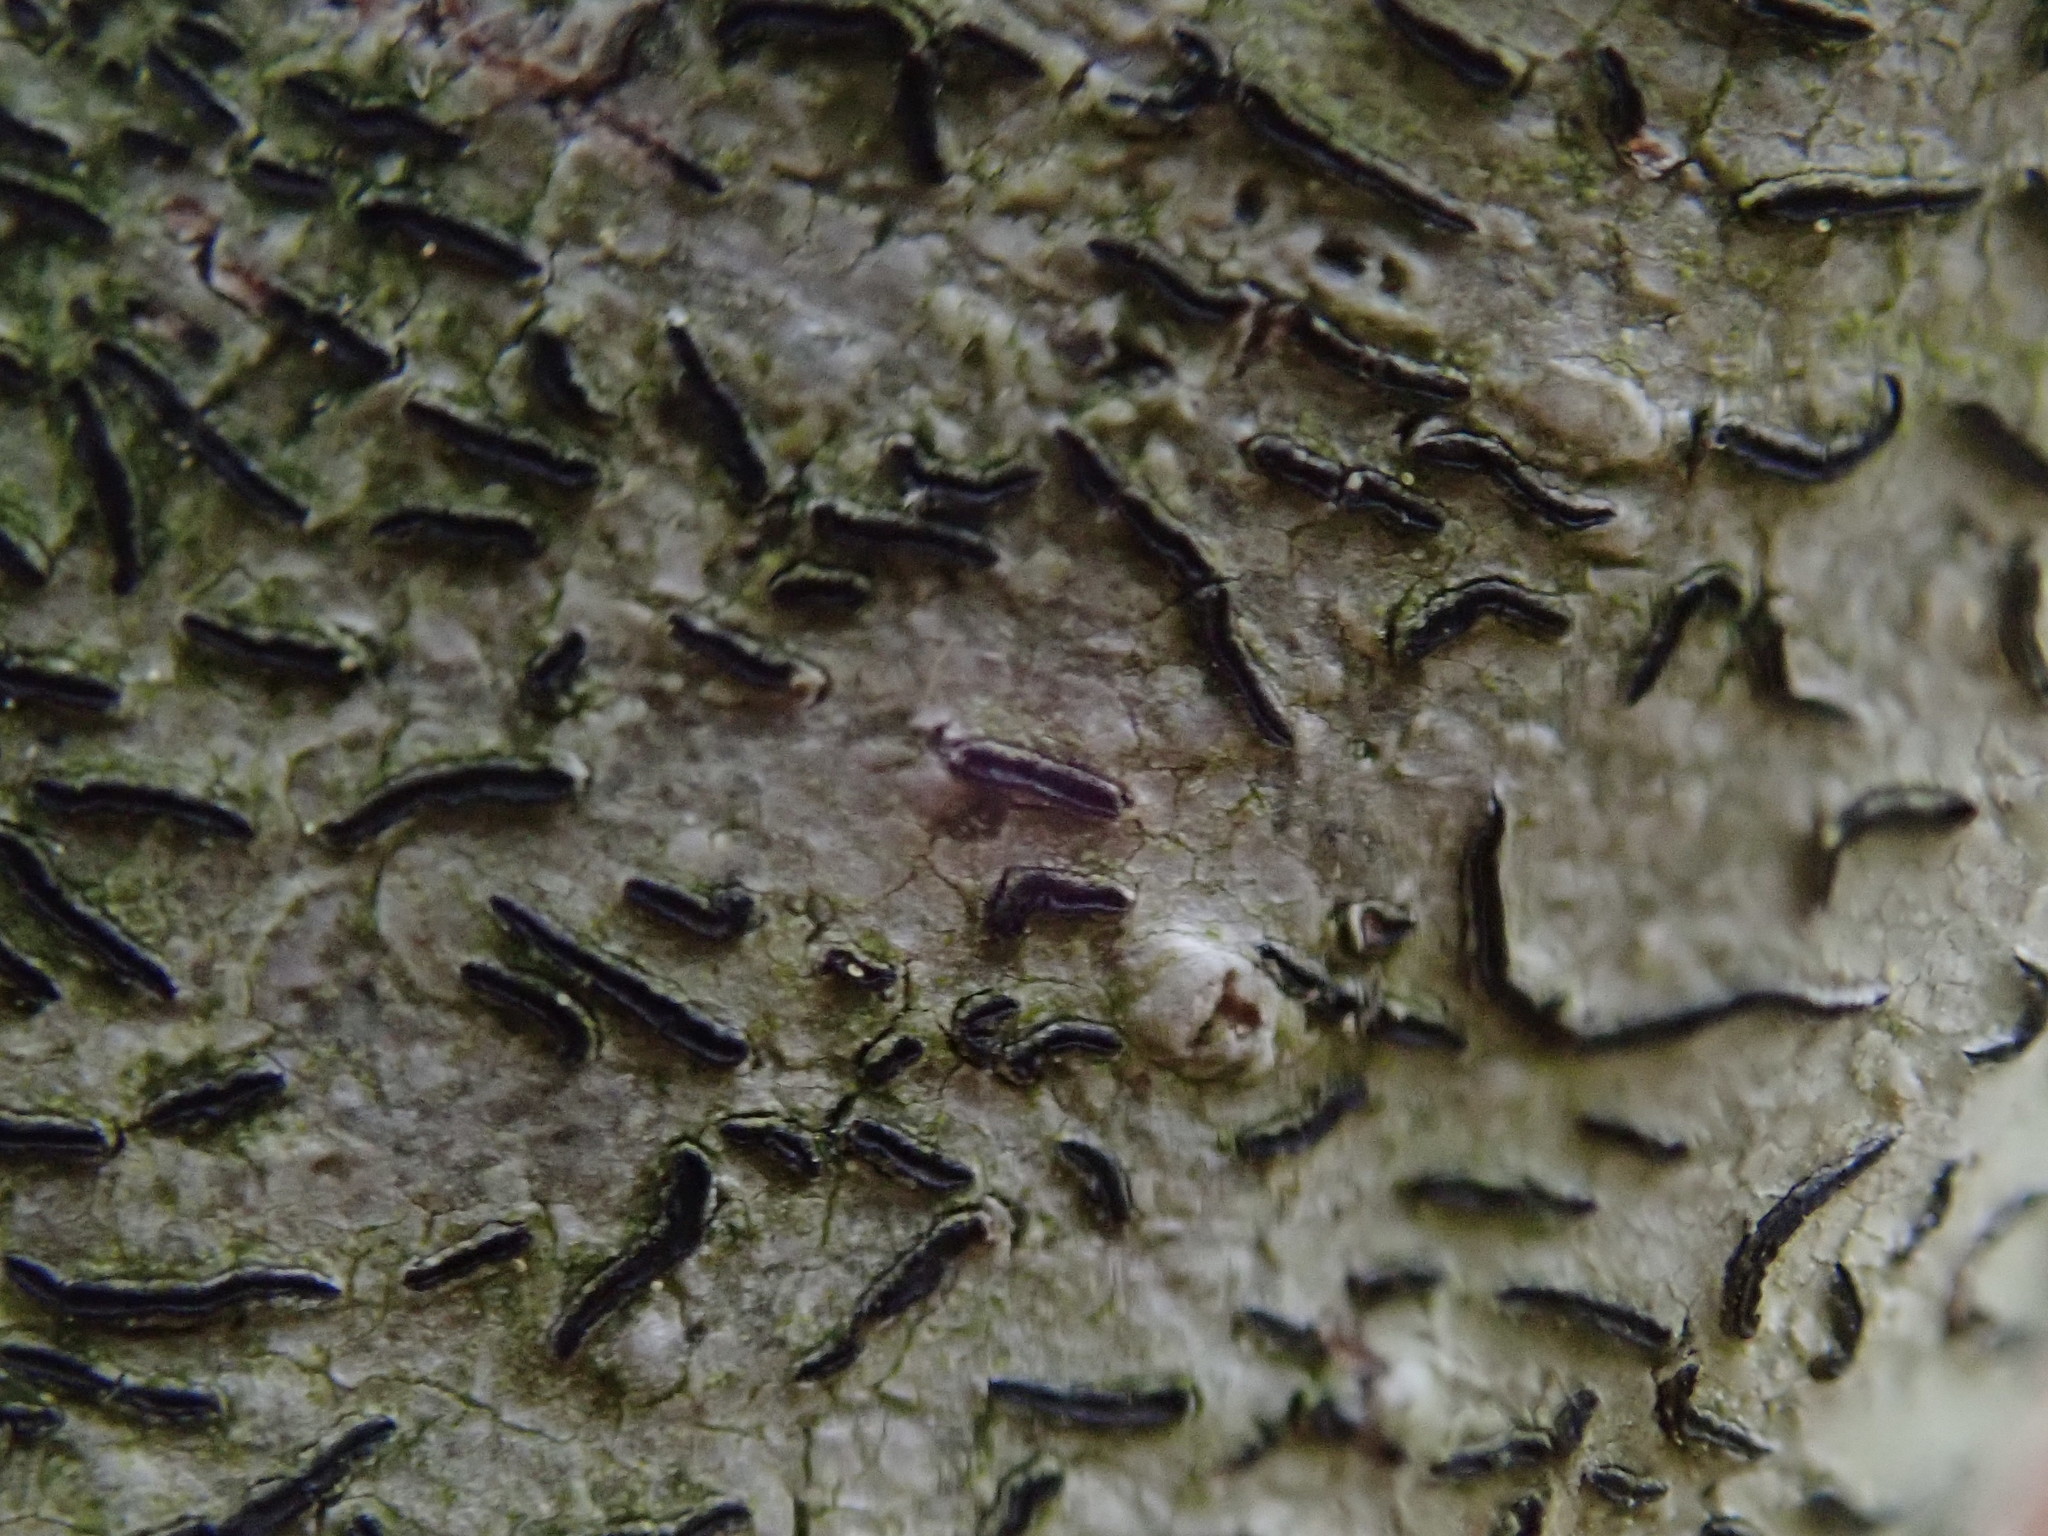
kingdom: Fungi
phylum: Ascomycota
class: Lecanoromycetes
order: Ostropales
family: Graphidaceae
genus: Graphis
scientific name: Graphis scripta
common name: Script lichen
